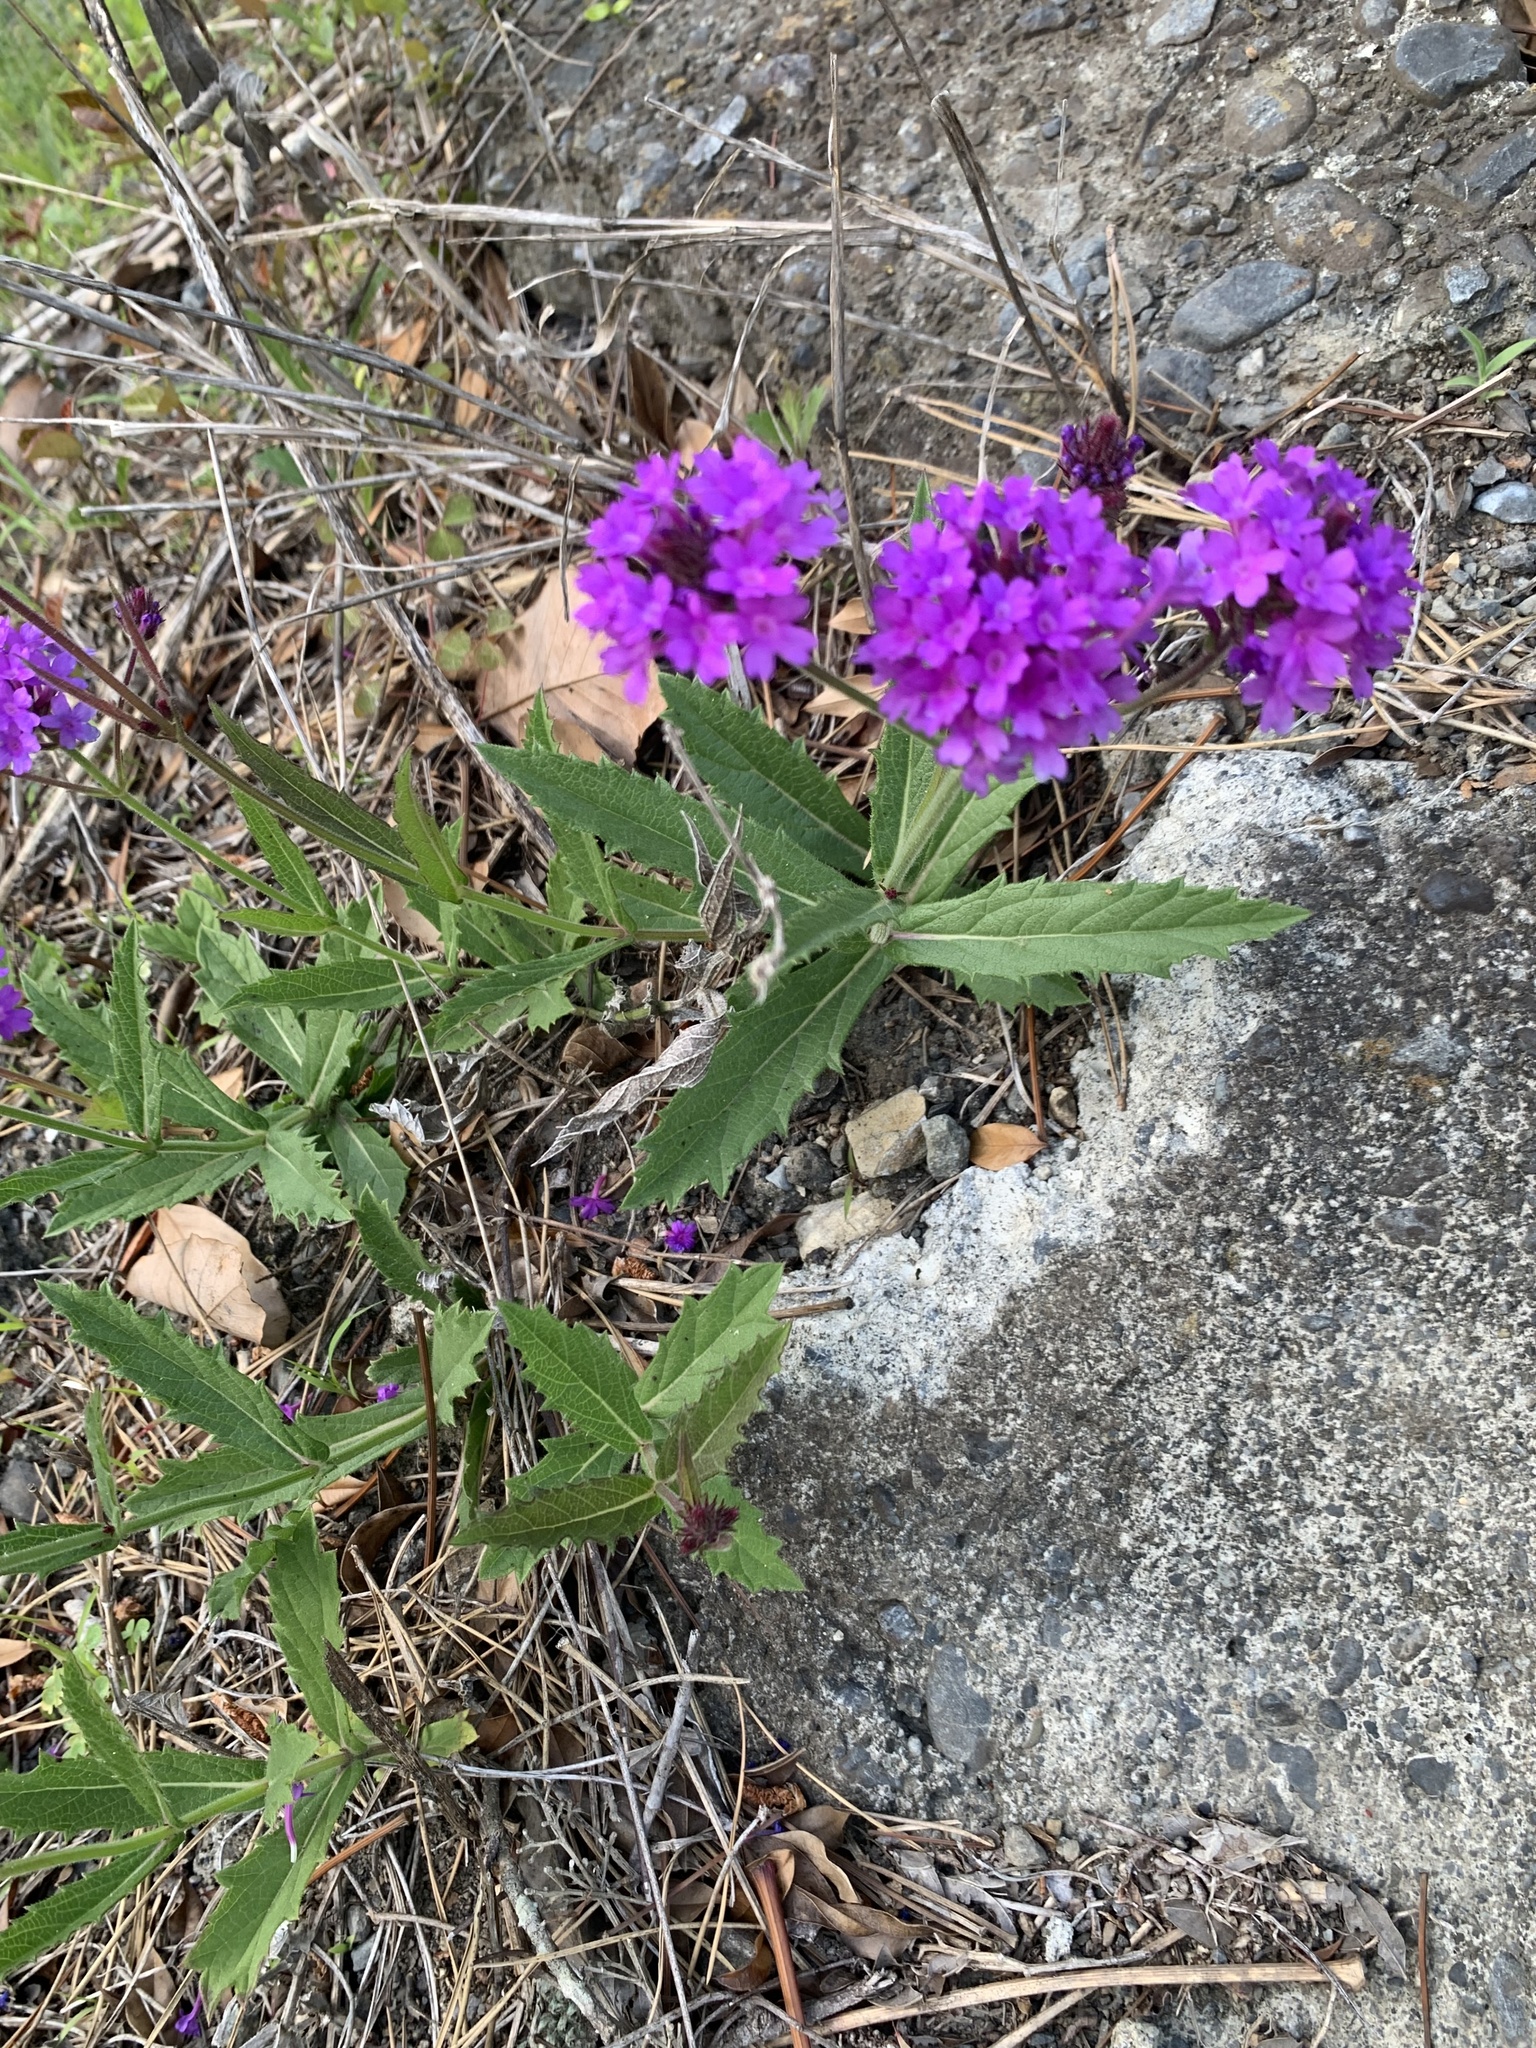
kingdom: Plantae
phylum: Tracheophyta
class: Magnoliopsida
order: Lamiales
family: Verbenaceae
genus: Verbena
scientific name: Verbena rigida
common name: Slender vervain
